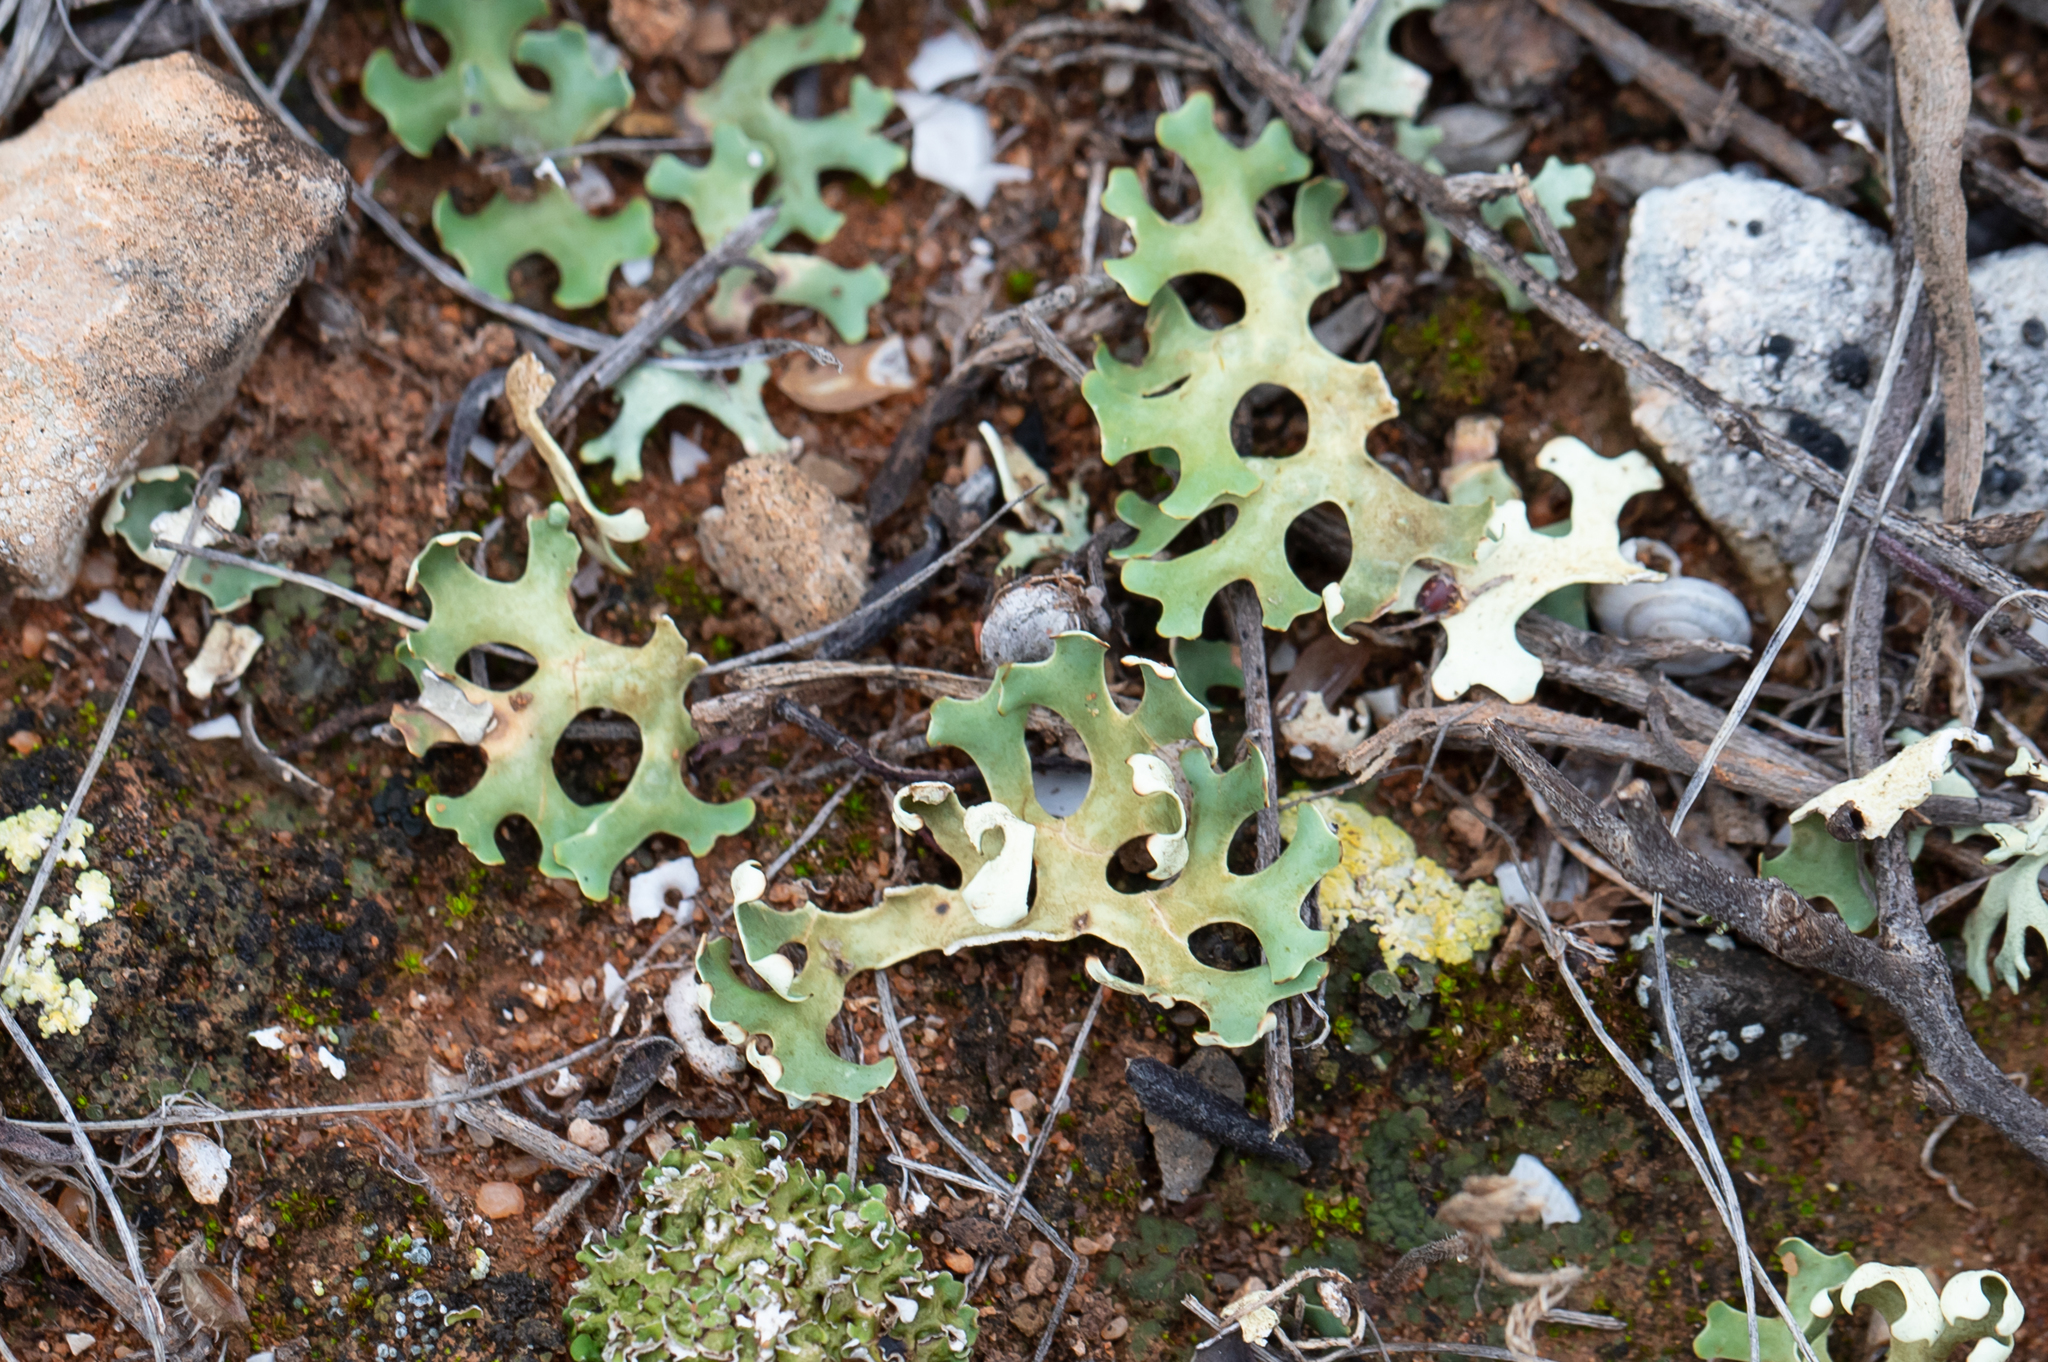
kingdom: Fungi
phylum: Ascomycota
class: Lecanoromycetes
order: Lecanorales
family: Parmeliaceae
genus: Xanthoparmelia
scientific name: Xanthoparmelia semiviridis
